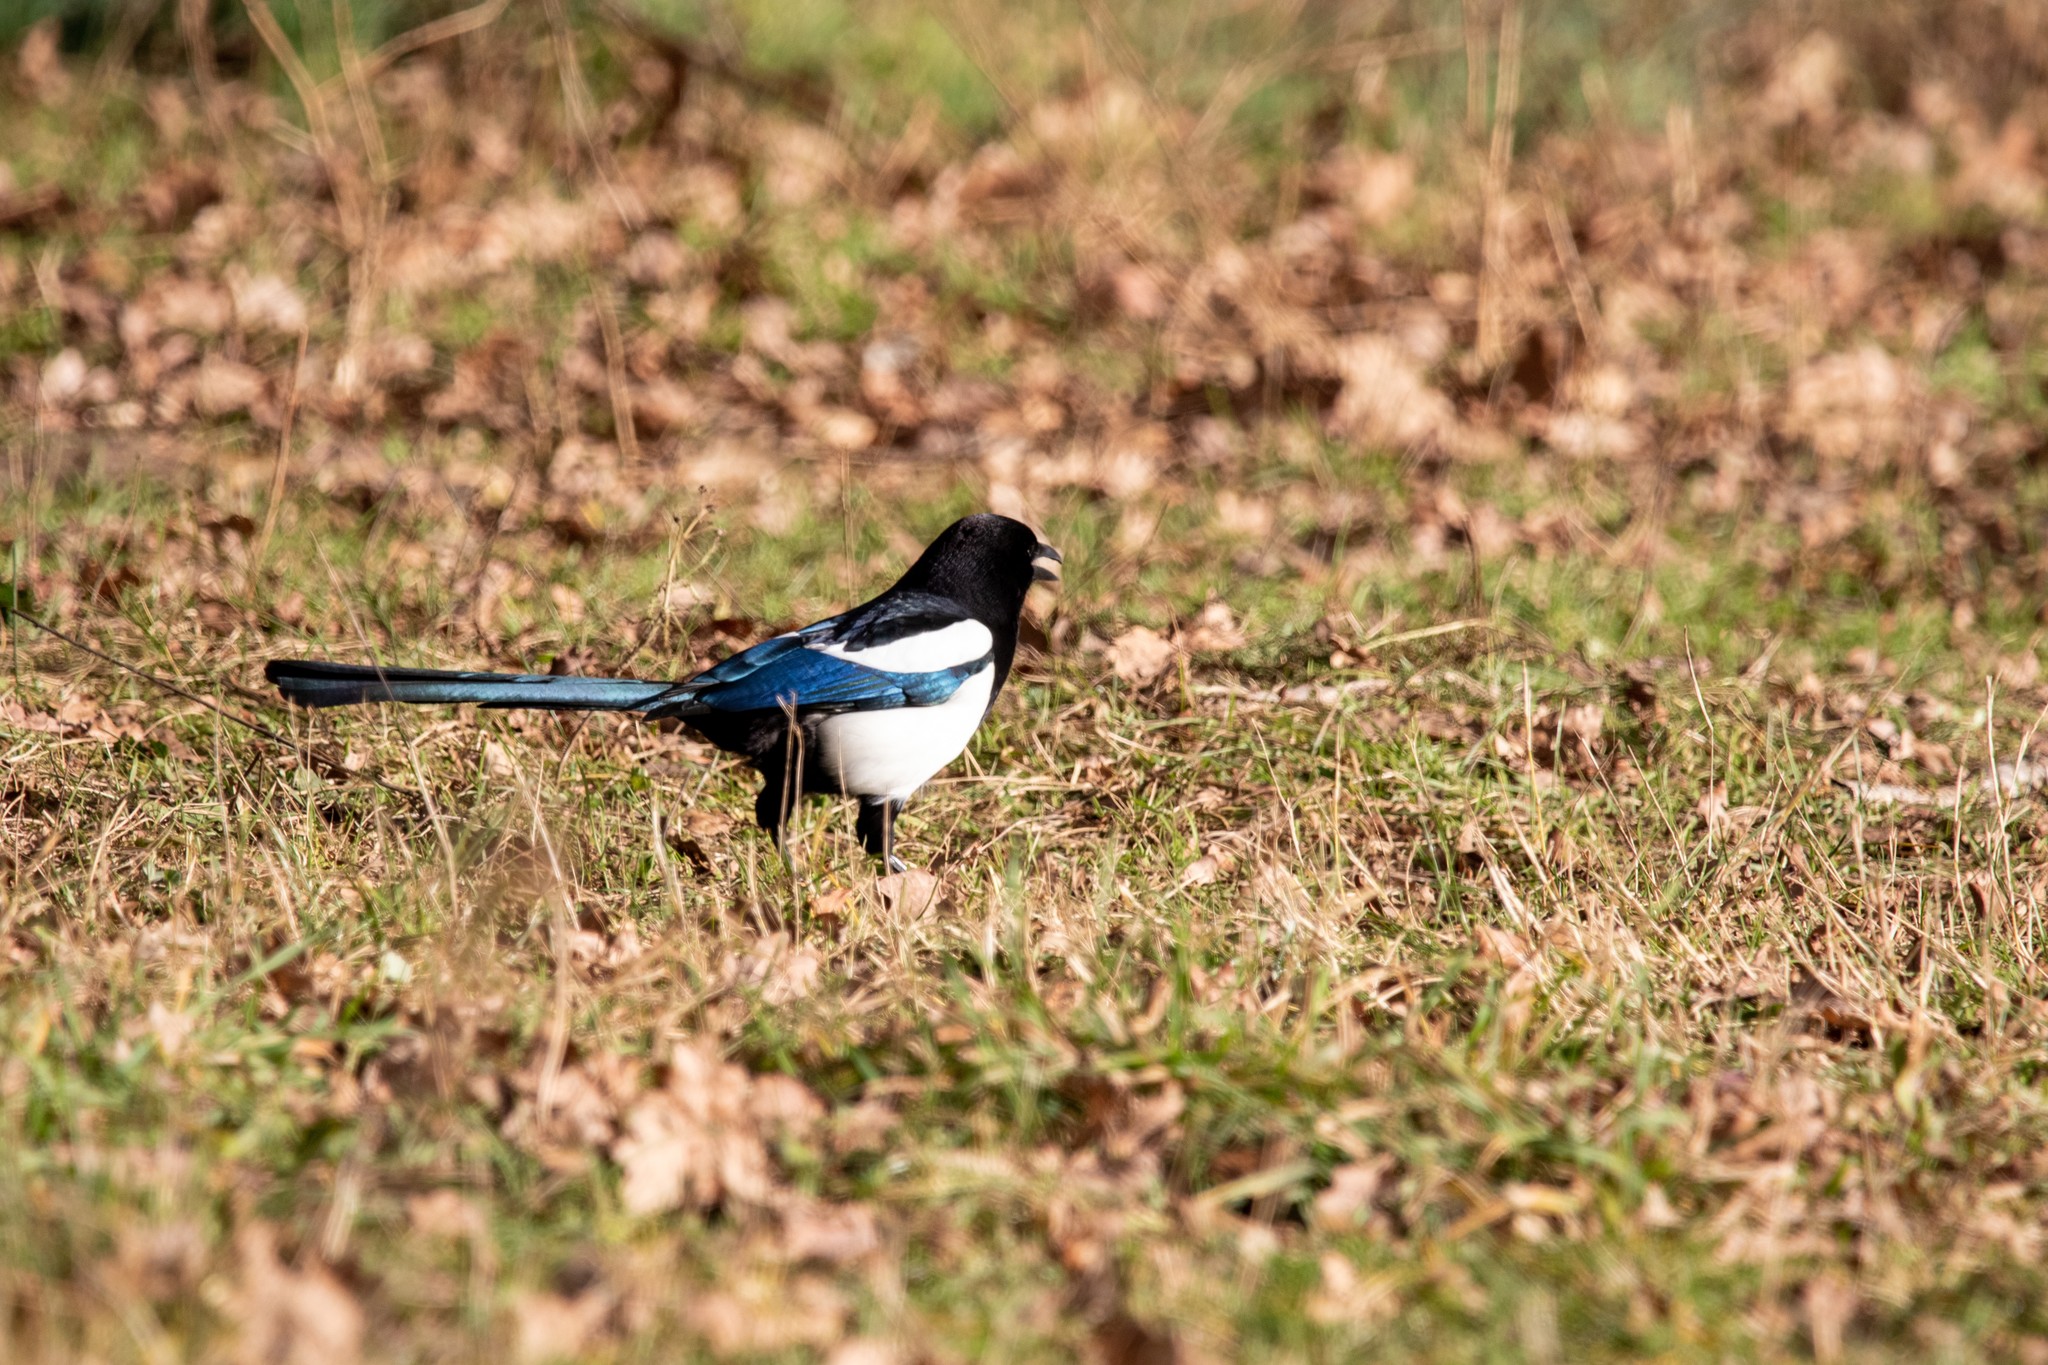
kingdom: Animalia
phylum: Chordata
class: Aves
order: Passeriformes
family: Corvidae
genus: Pica
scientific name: Pica pica
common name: Eurasian magpie
